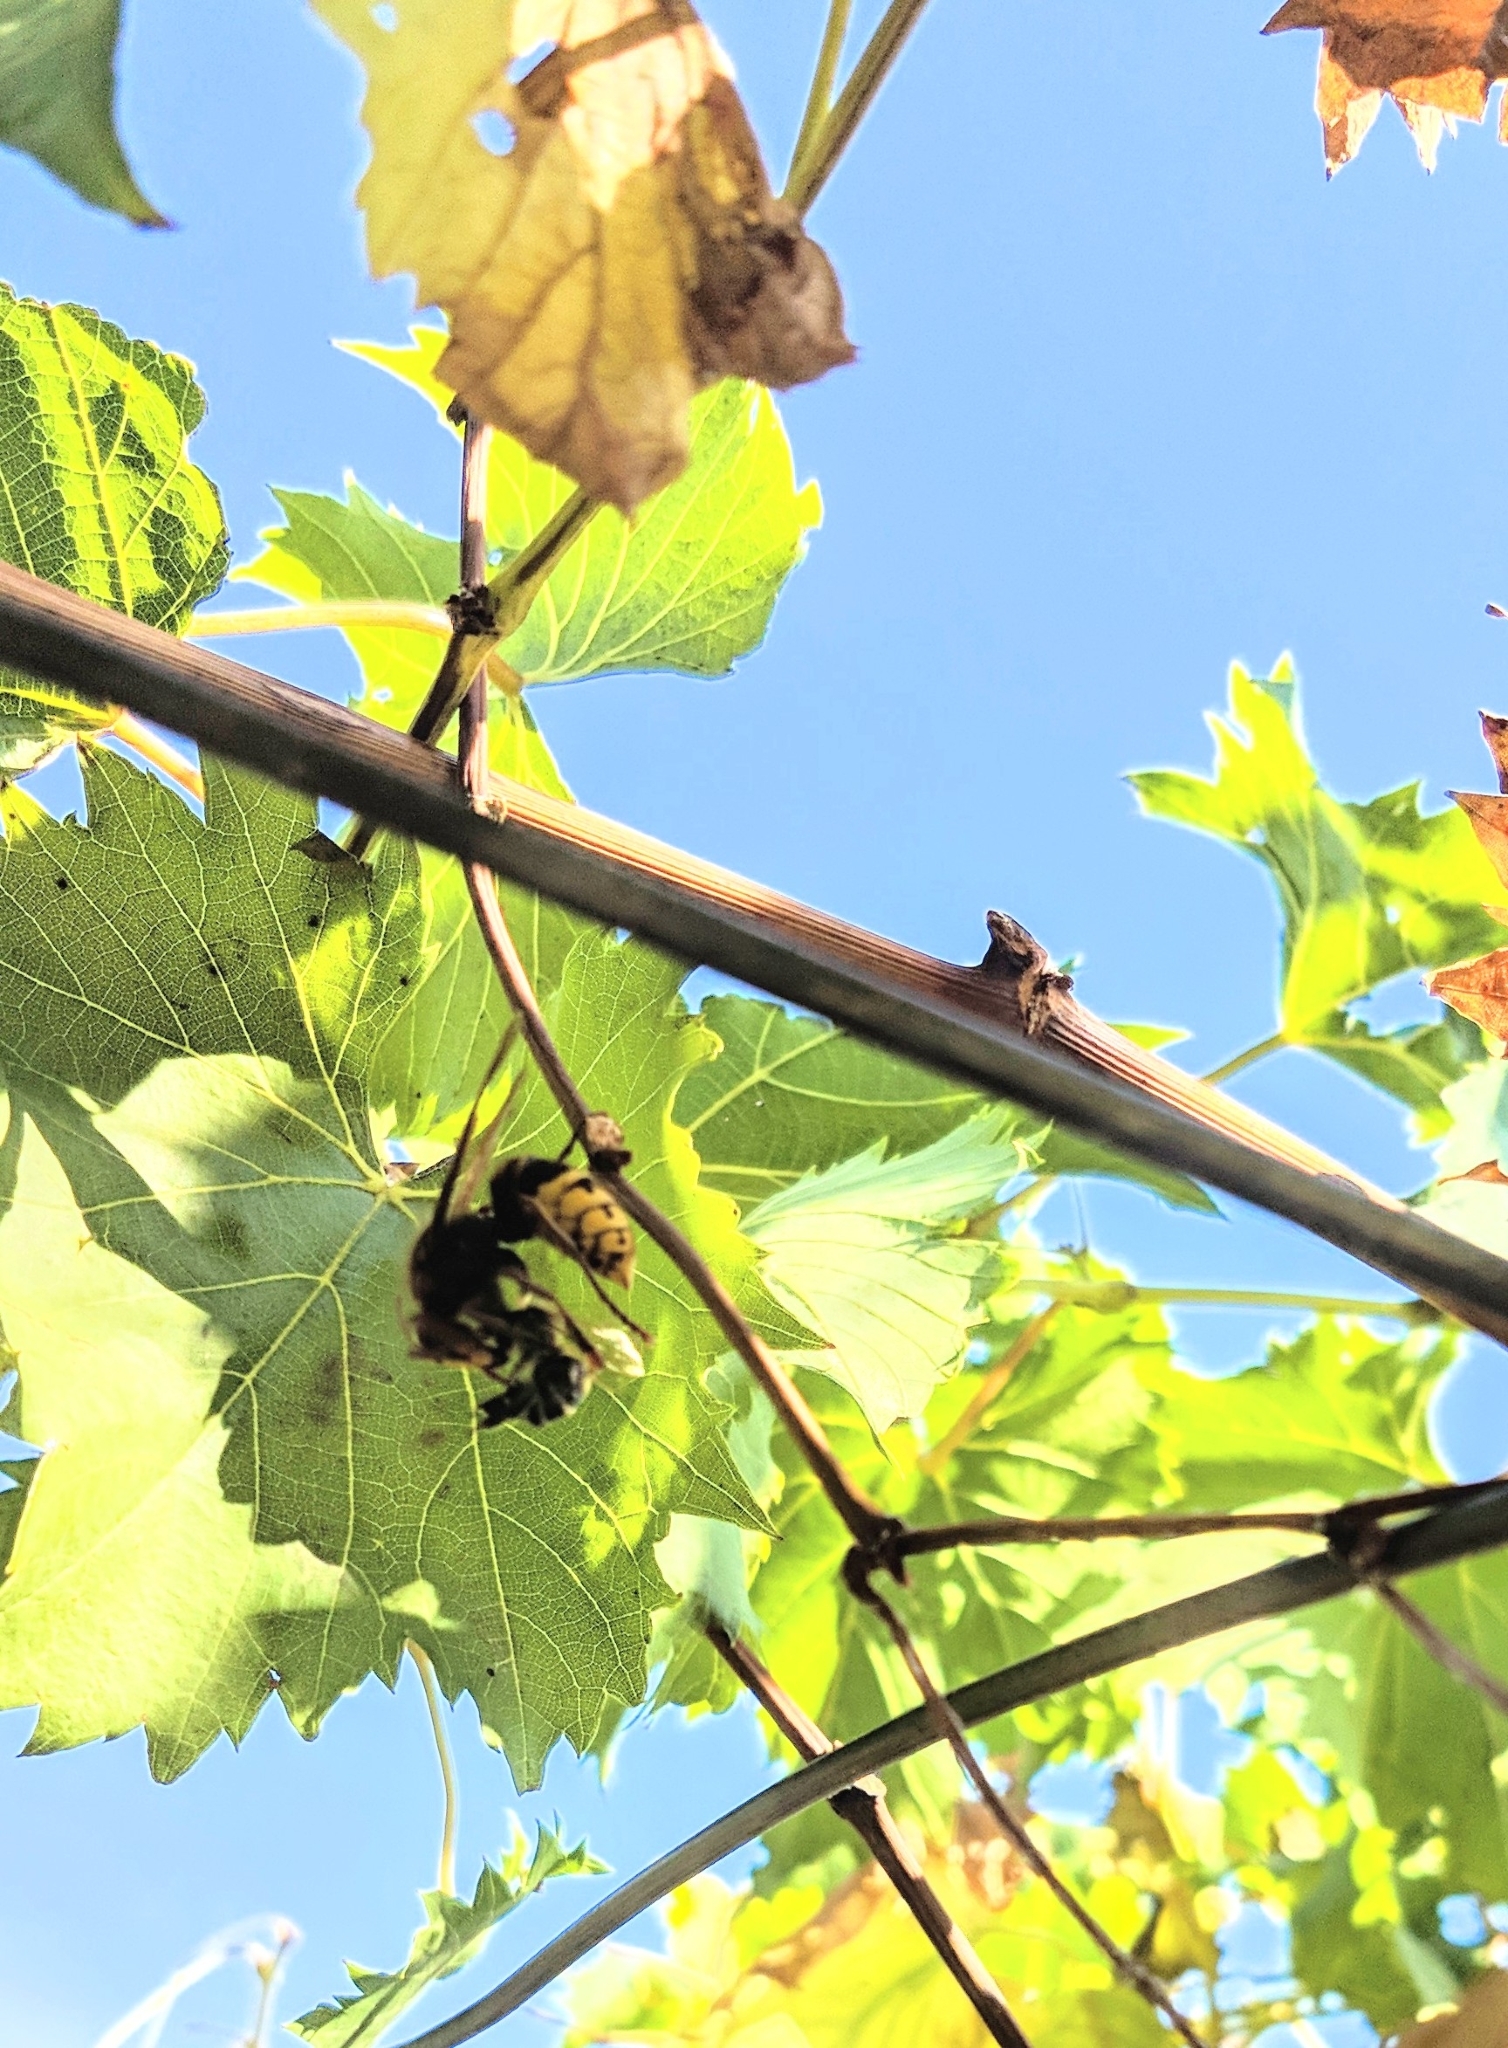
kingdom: Animalia
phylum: Arthropoda
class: Insecta
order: Hymenoptera
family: Vespidae
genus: Vespa
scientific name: Vespa crabro
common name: Hornet
